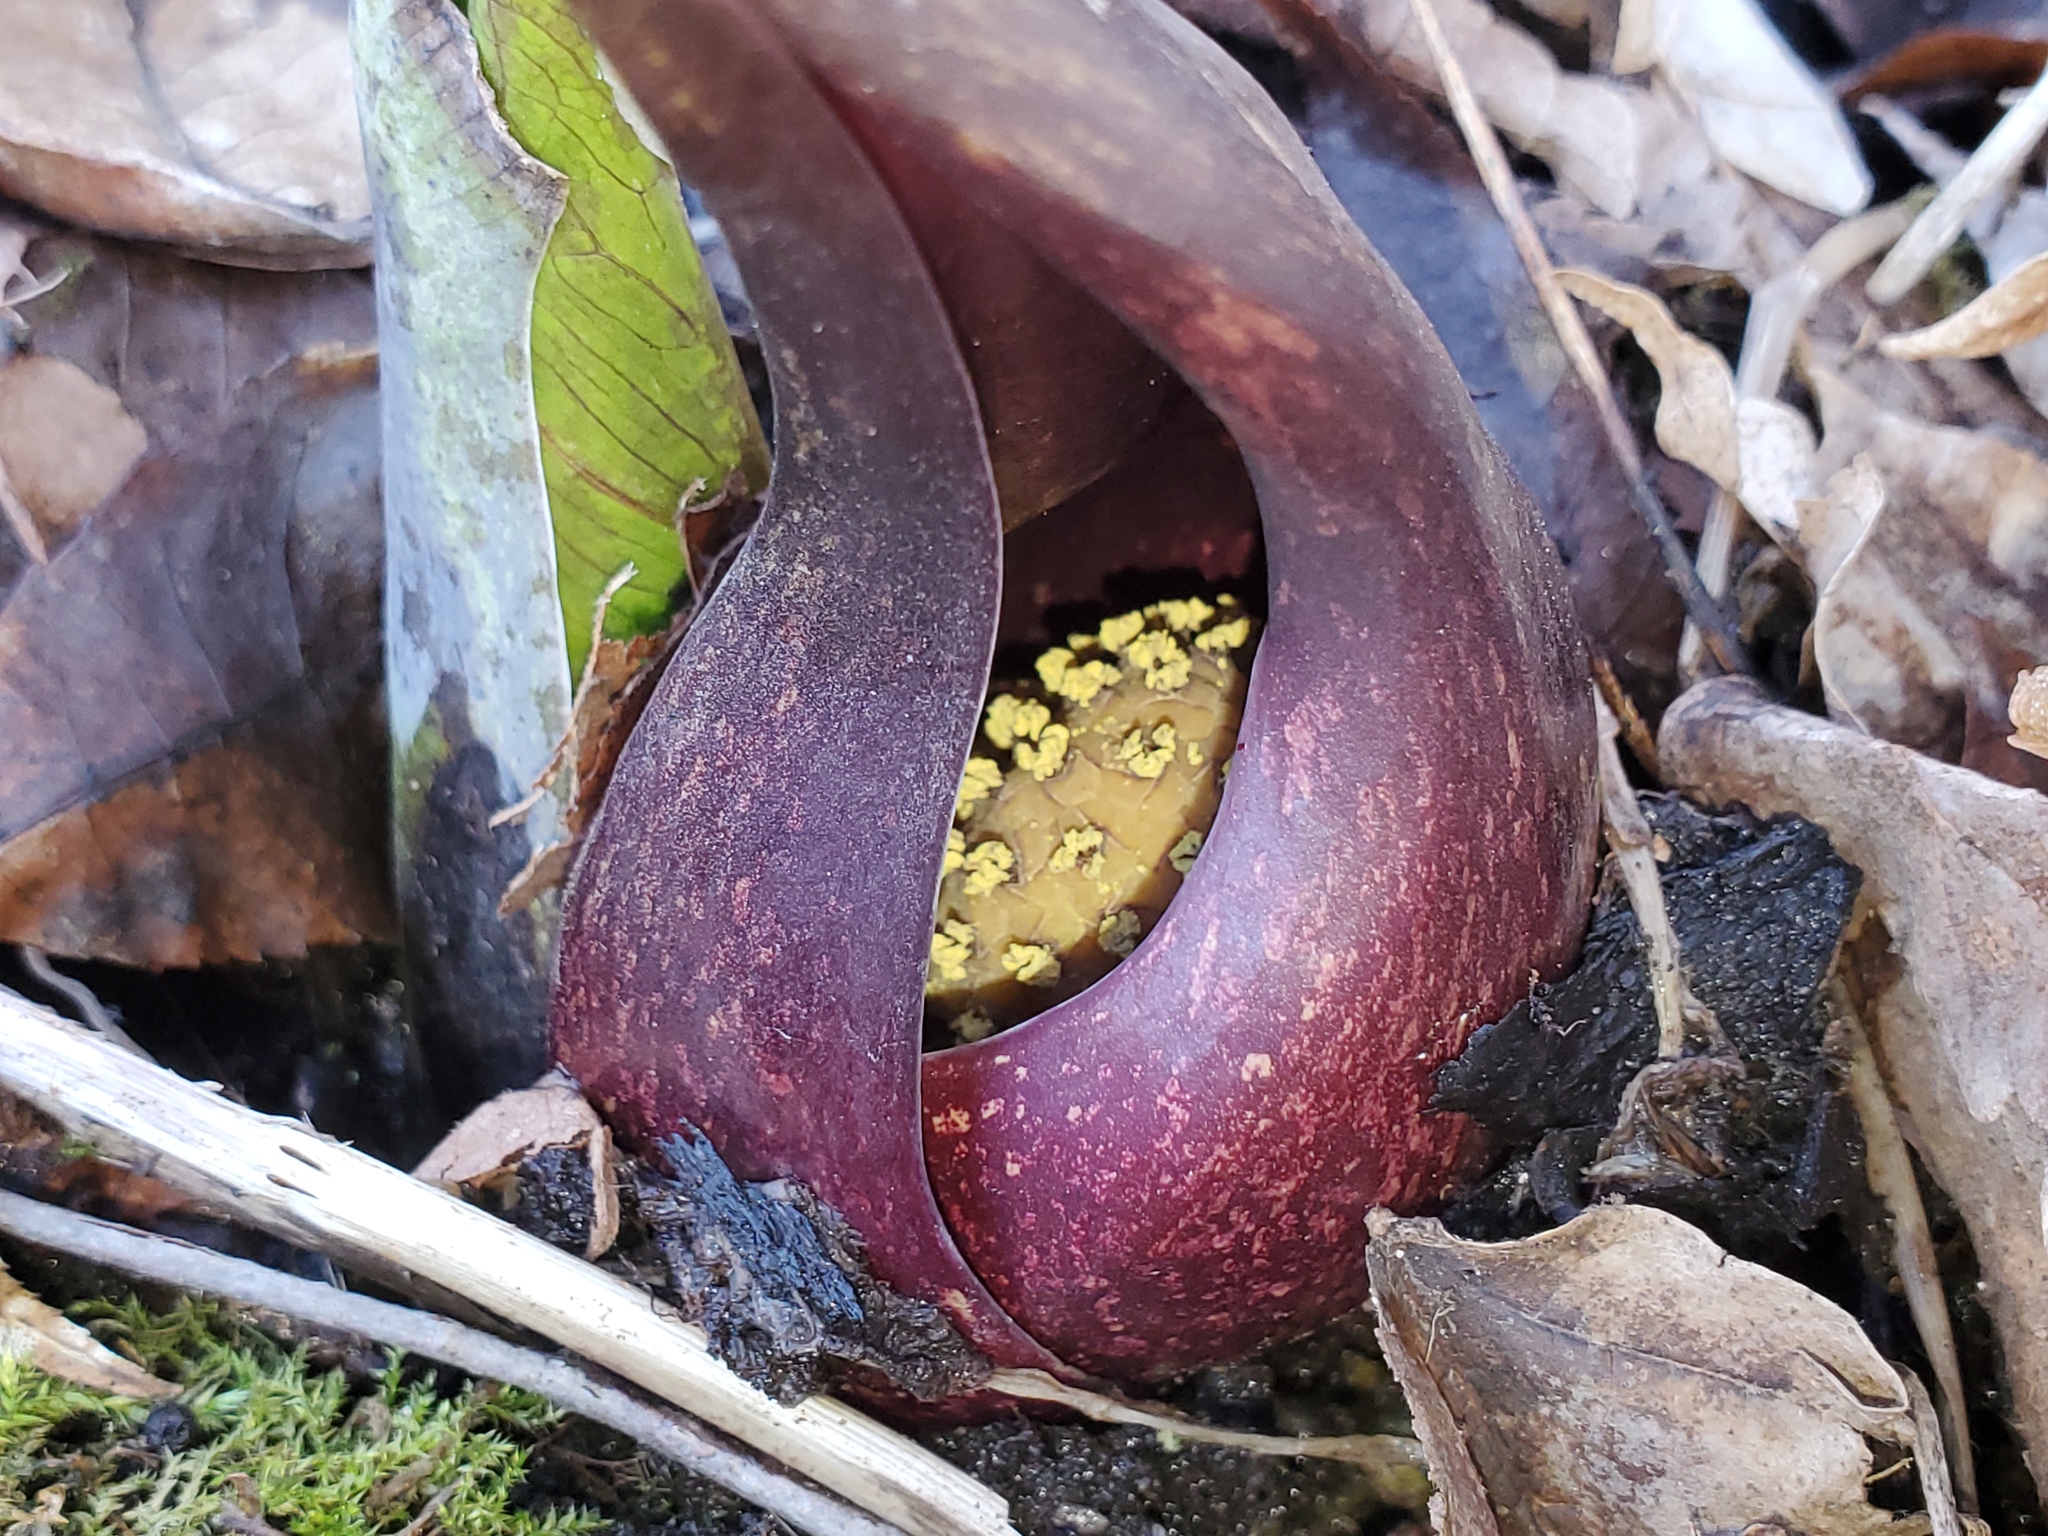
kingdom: Plantae
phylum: Tracheophyta
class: Liliopsida
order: Alismatales
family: Araceae
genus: Symplocarpus
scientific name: Symplocarpus foetidus
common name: Eastern skunk cabbage
